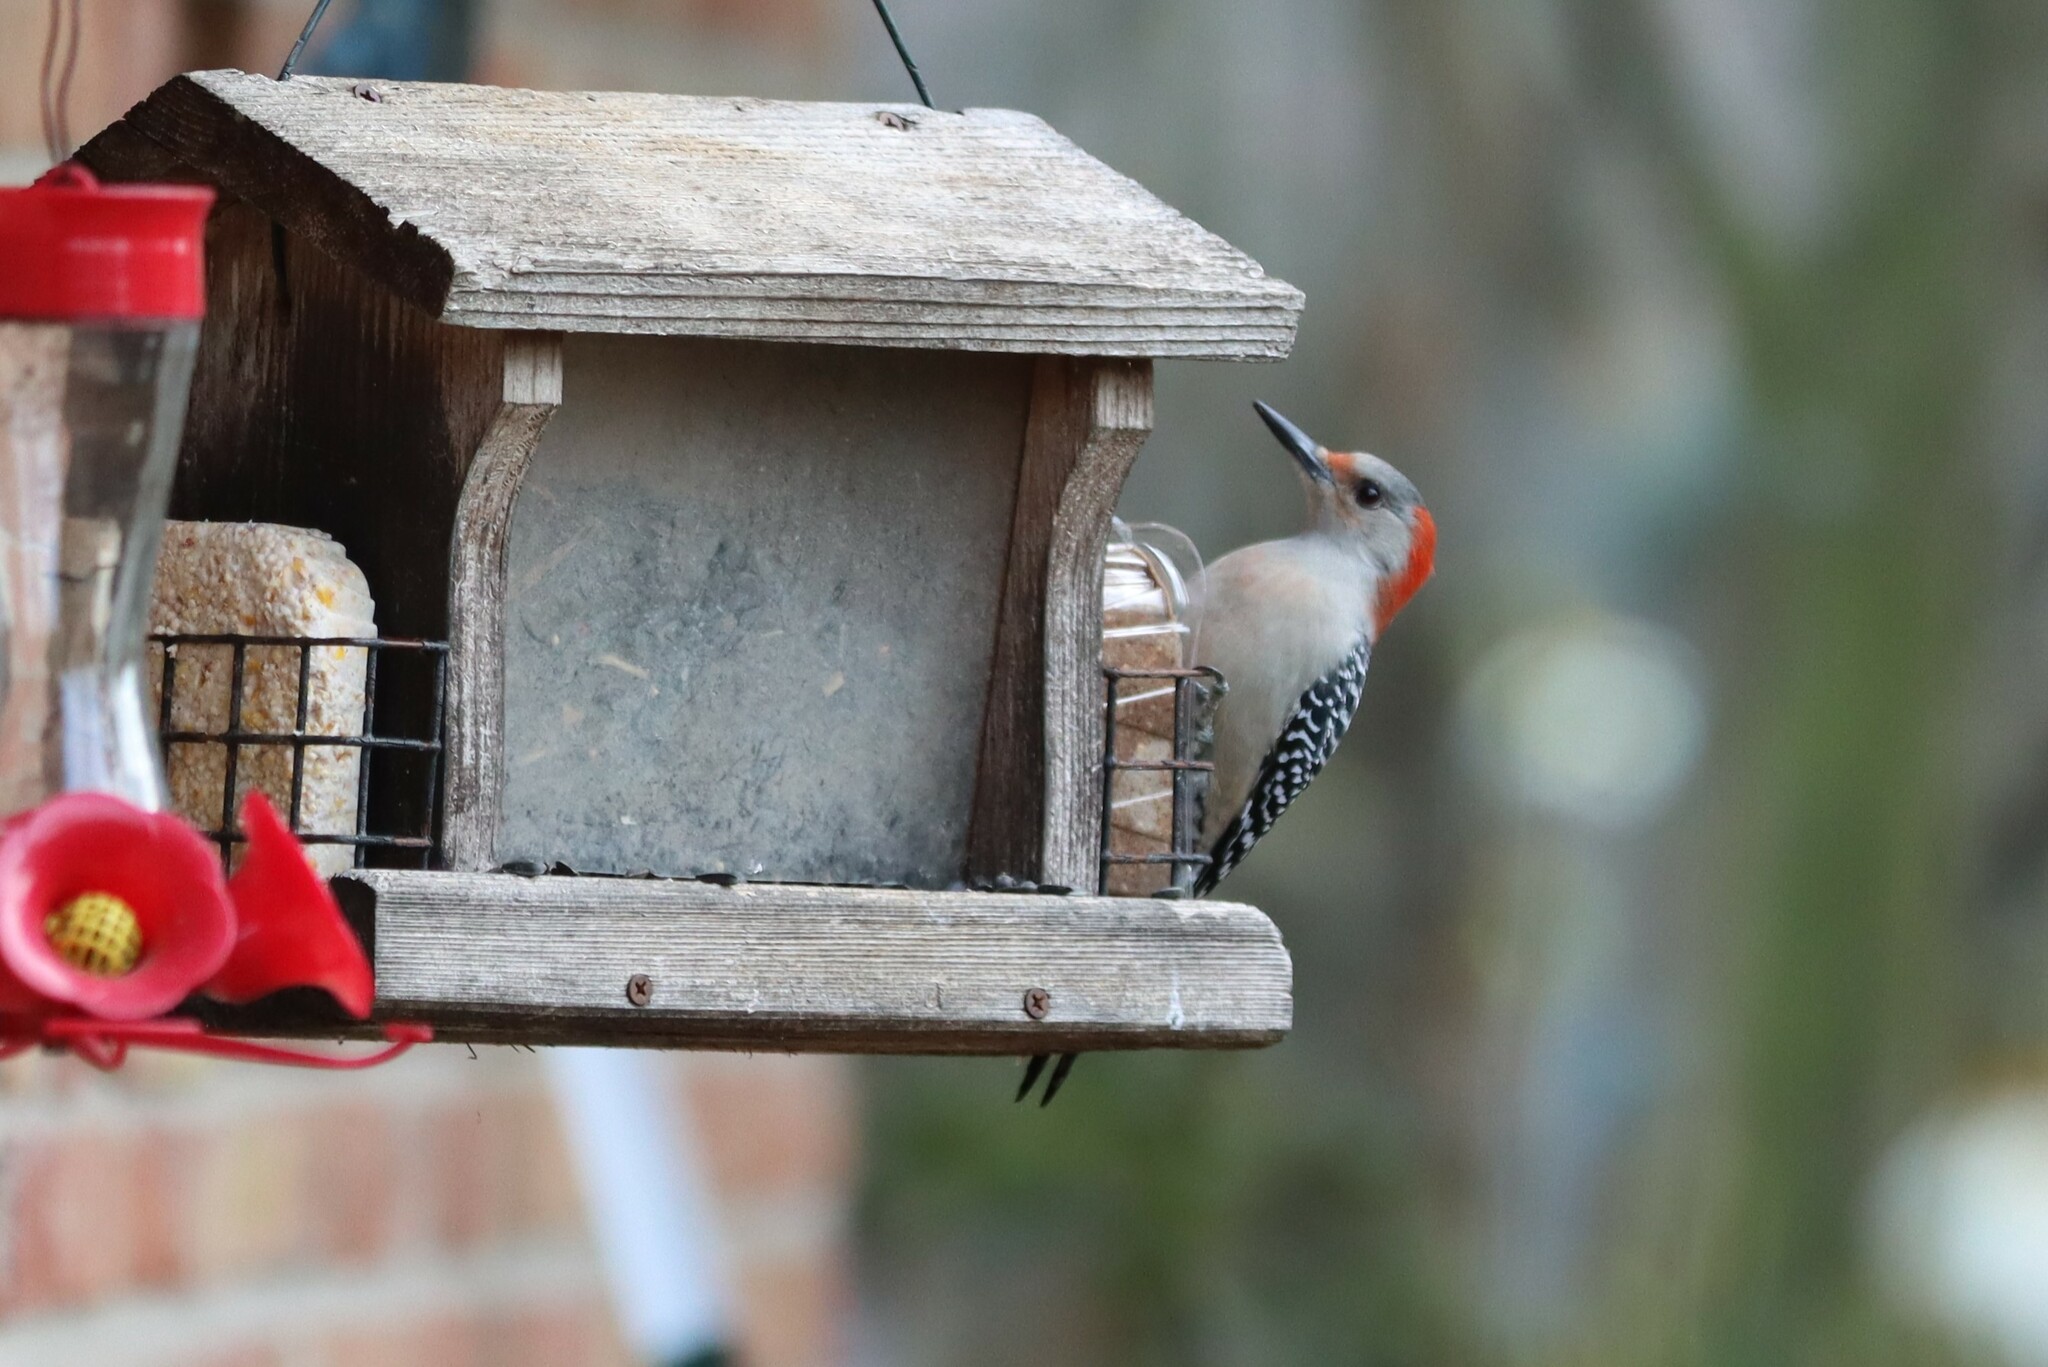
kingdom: Animalia
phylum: Chordata
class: Aves
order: Piciformes
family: Picidae
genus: Melanerpes
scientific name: Melanerpes carolinus
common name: Red-bellied woodpecker
